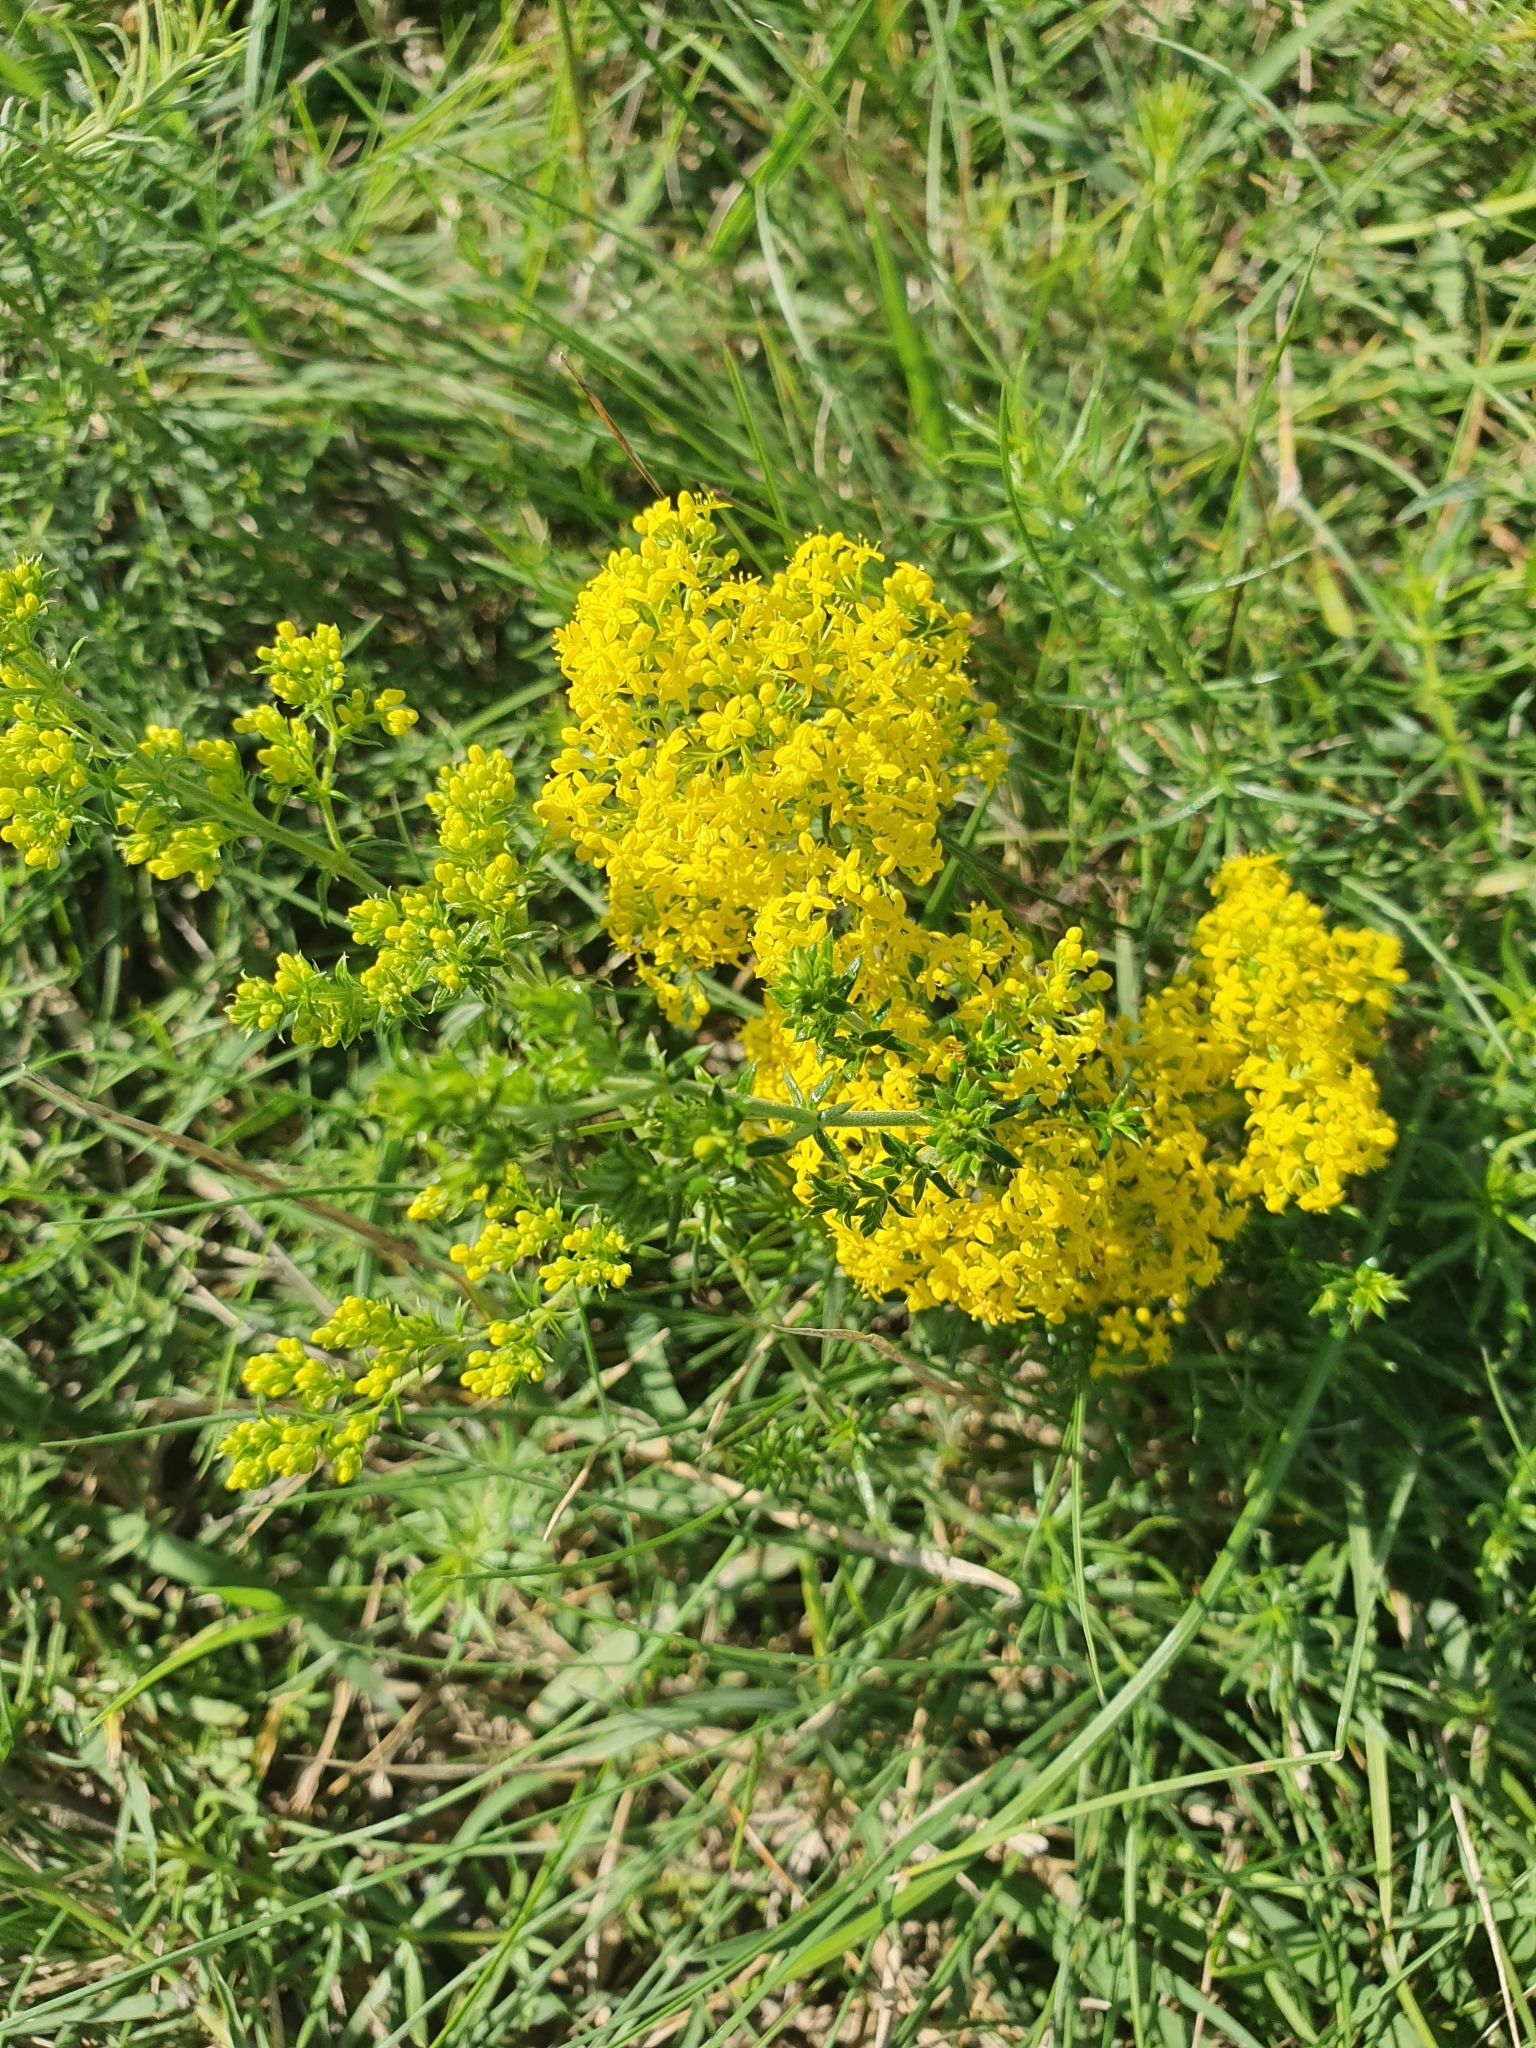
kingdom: Plantae
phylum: Tracheophyta
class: Magnoliopsida
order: Gentianales
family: Rubiaceae
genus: Galium
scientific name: Galium verum
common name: Lady's bedstraw
